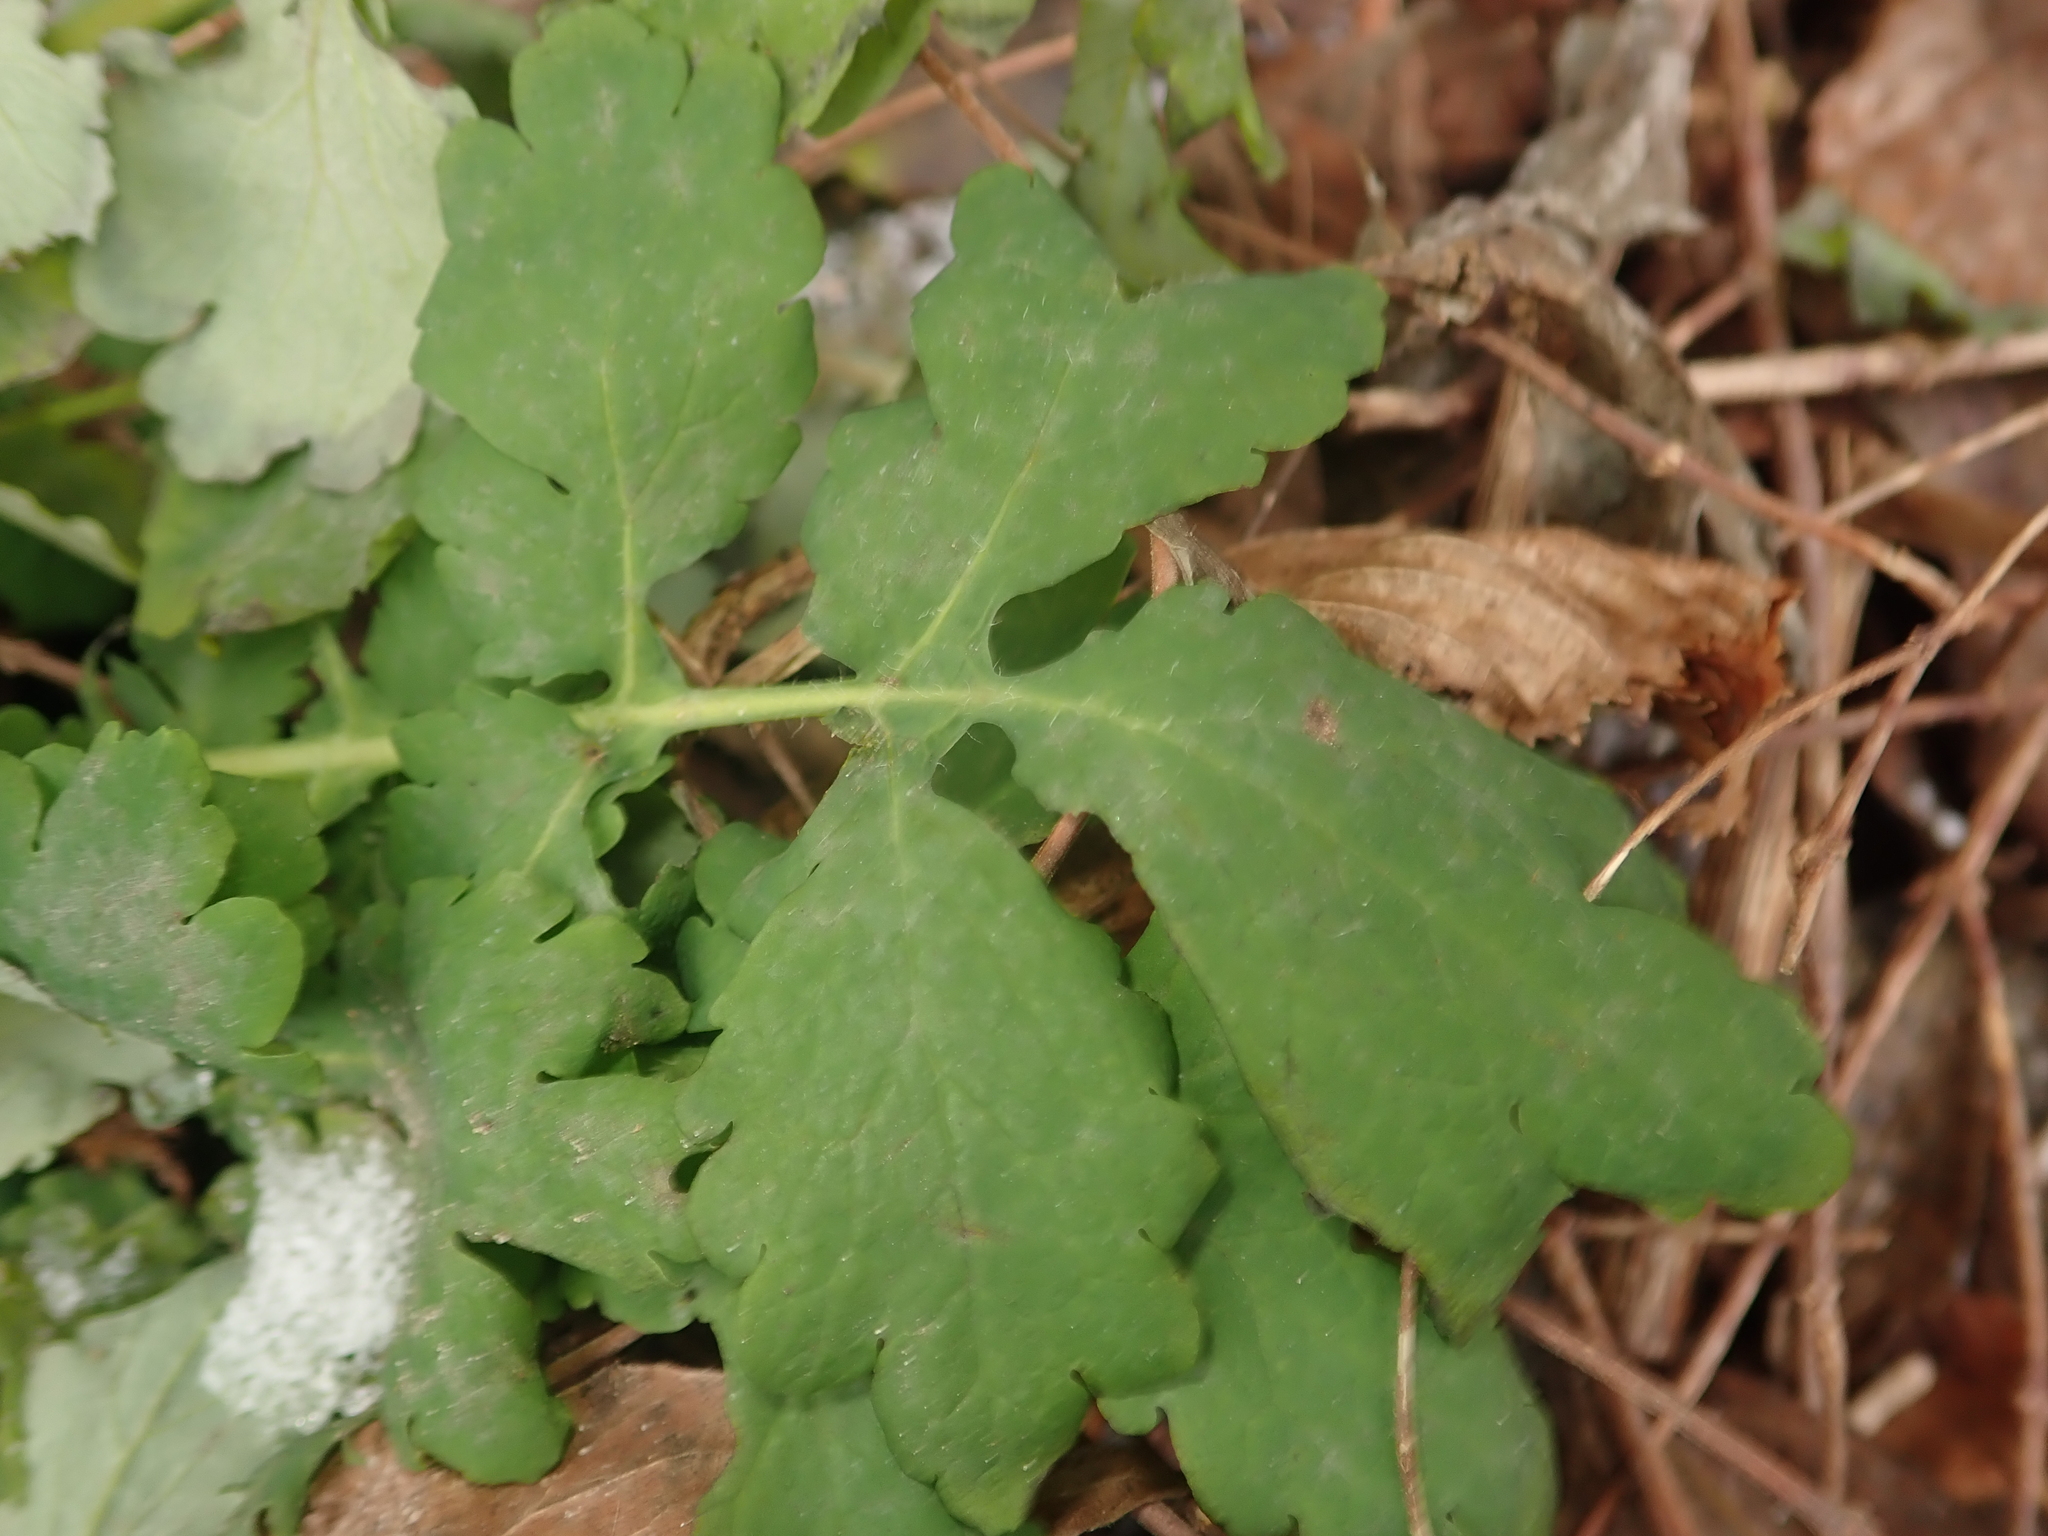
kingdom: Plantae
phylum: Tracheophyta
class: Magnoliopsida
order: Ranunculales
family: Papaveraceae
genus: Chelidonium
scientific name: Chelidonium majus
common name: Greater celandine
